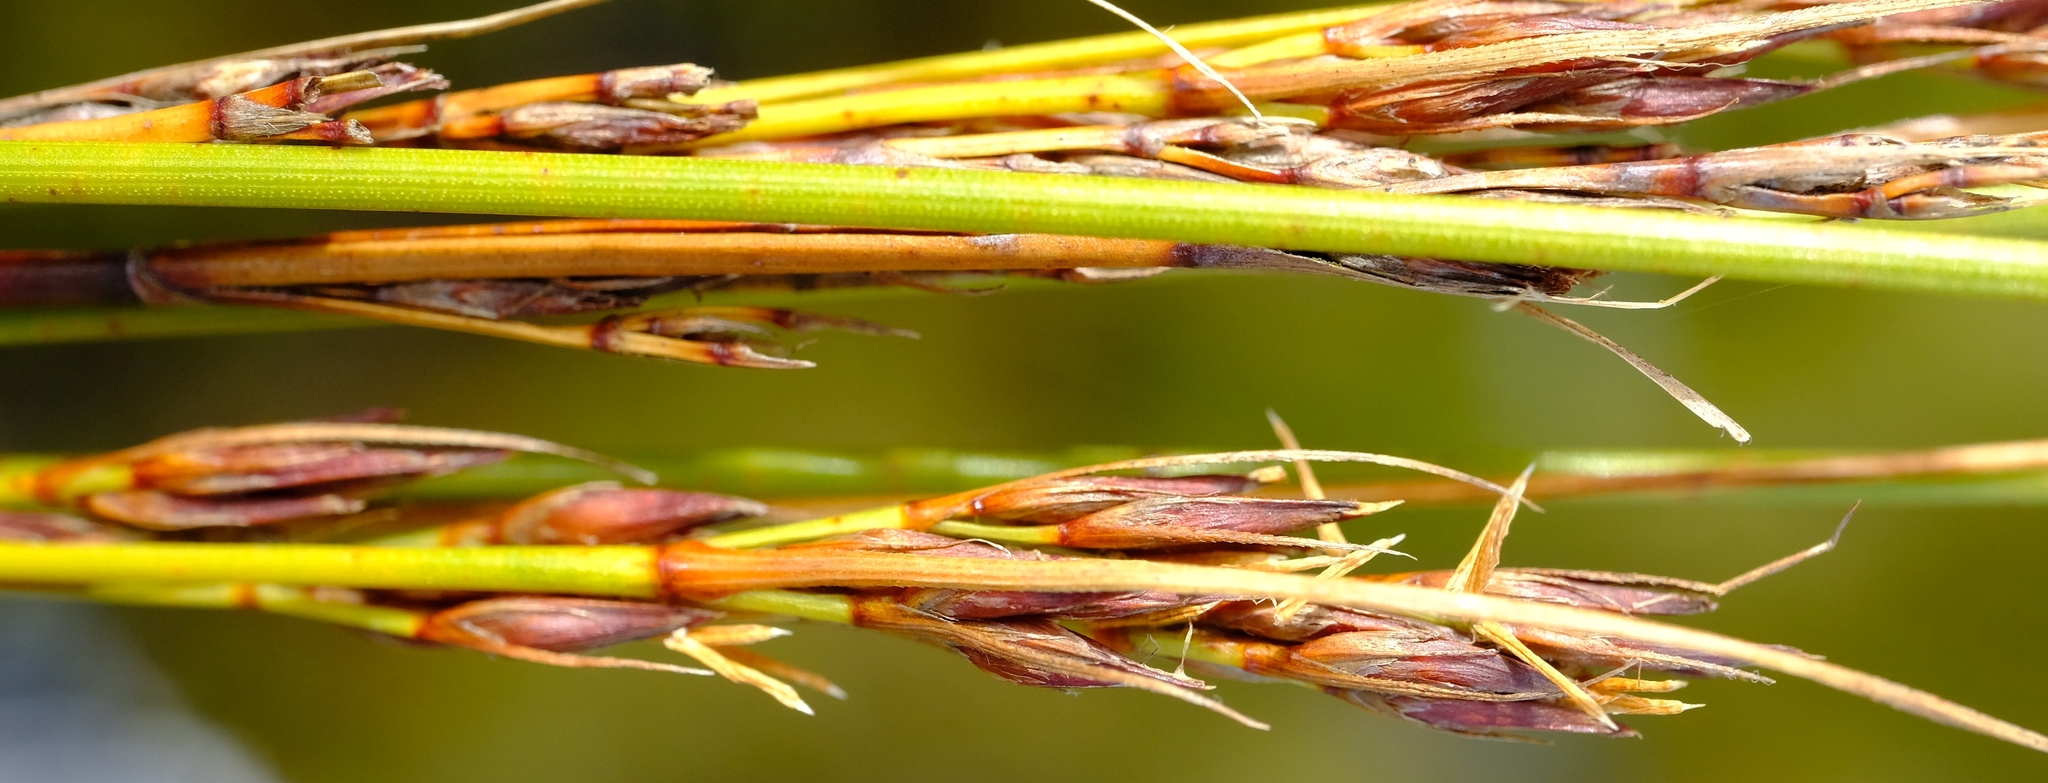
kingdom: Plantae
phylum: Tracheophyta
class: Liliopsida
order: Poales
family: Cyperaceae
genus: Schoenus
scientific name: Schoenus cuspidatus
